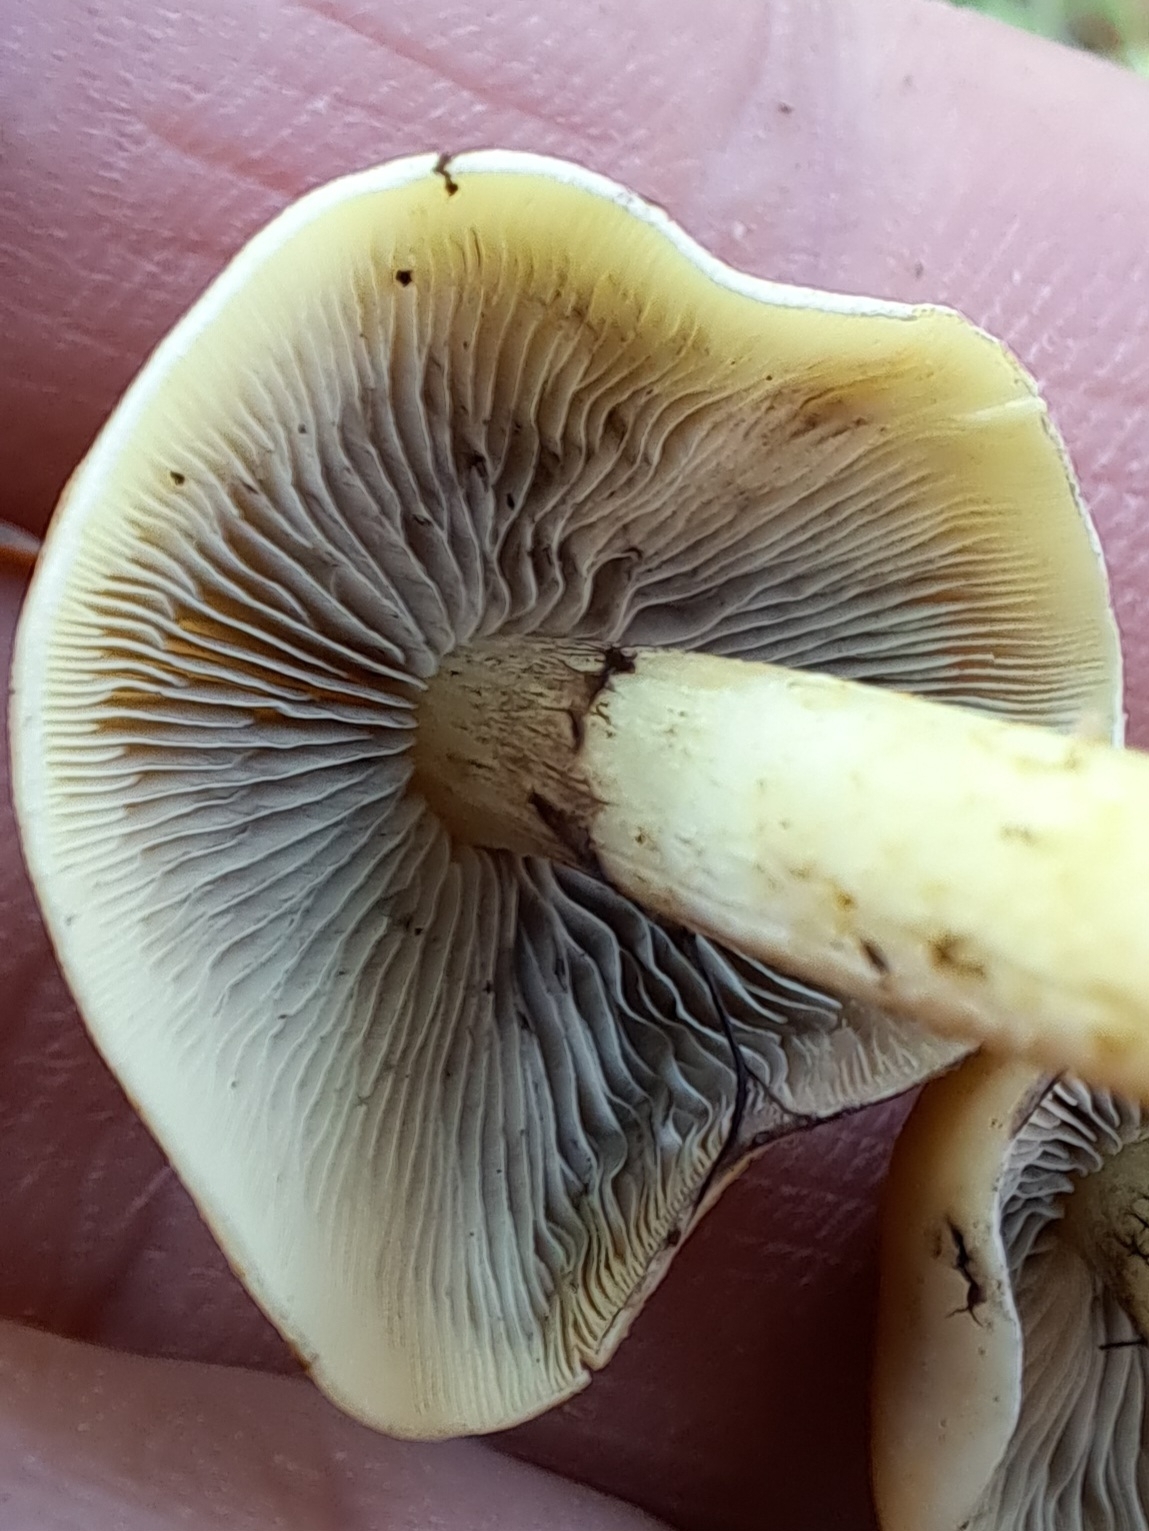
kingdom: Fungi
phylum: Basidiomycota
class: Agaricomycetes
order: Agaricales
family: Strophariaceae
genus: Hypholoma
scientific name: Hypholoma fasciculare
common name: Sulphur tuft
